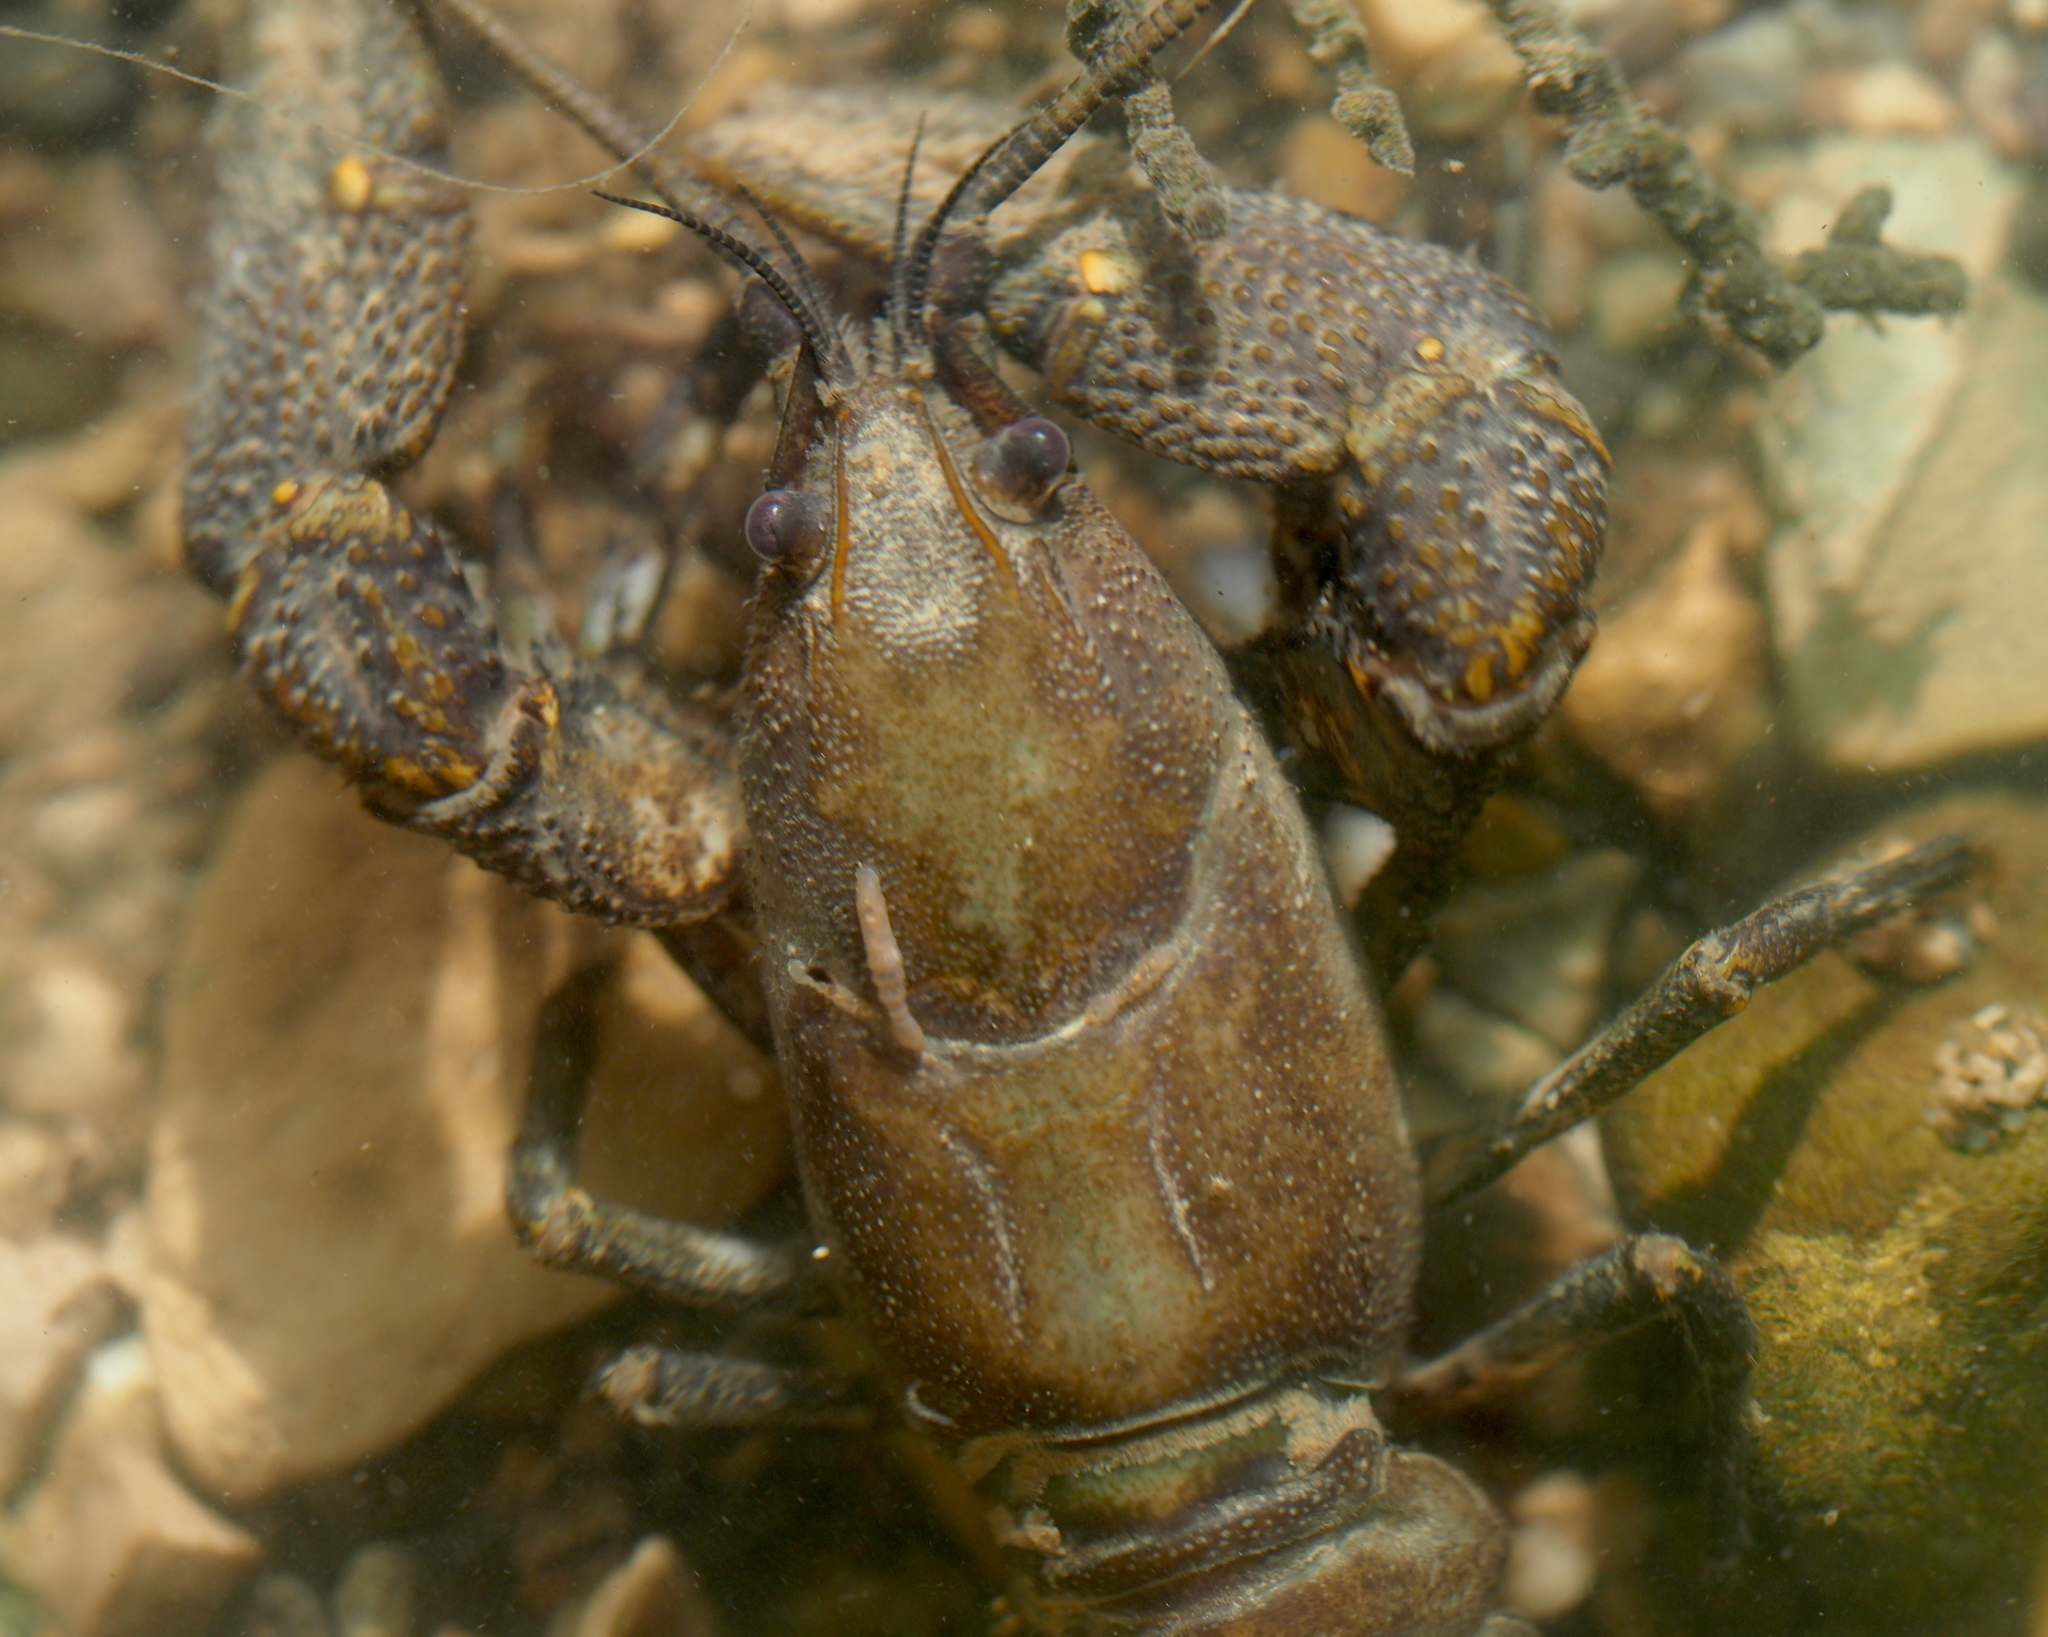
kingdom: Animalia
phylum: Arthropoda
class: Malacostraca
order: Decapoda
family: Astacidae
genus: Austropotamobius
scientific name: Austropotamobius torrentium
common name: Stone crayfish
